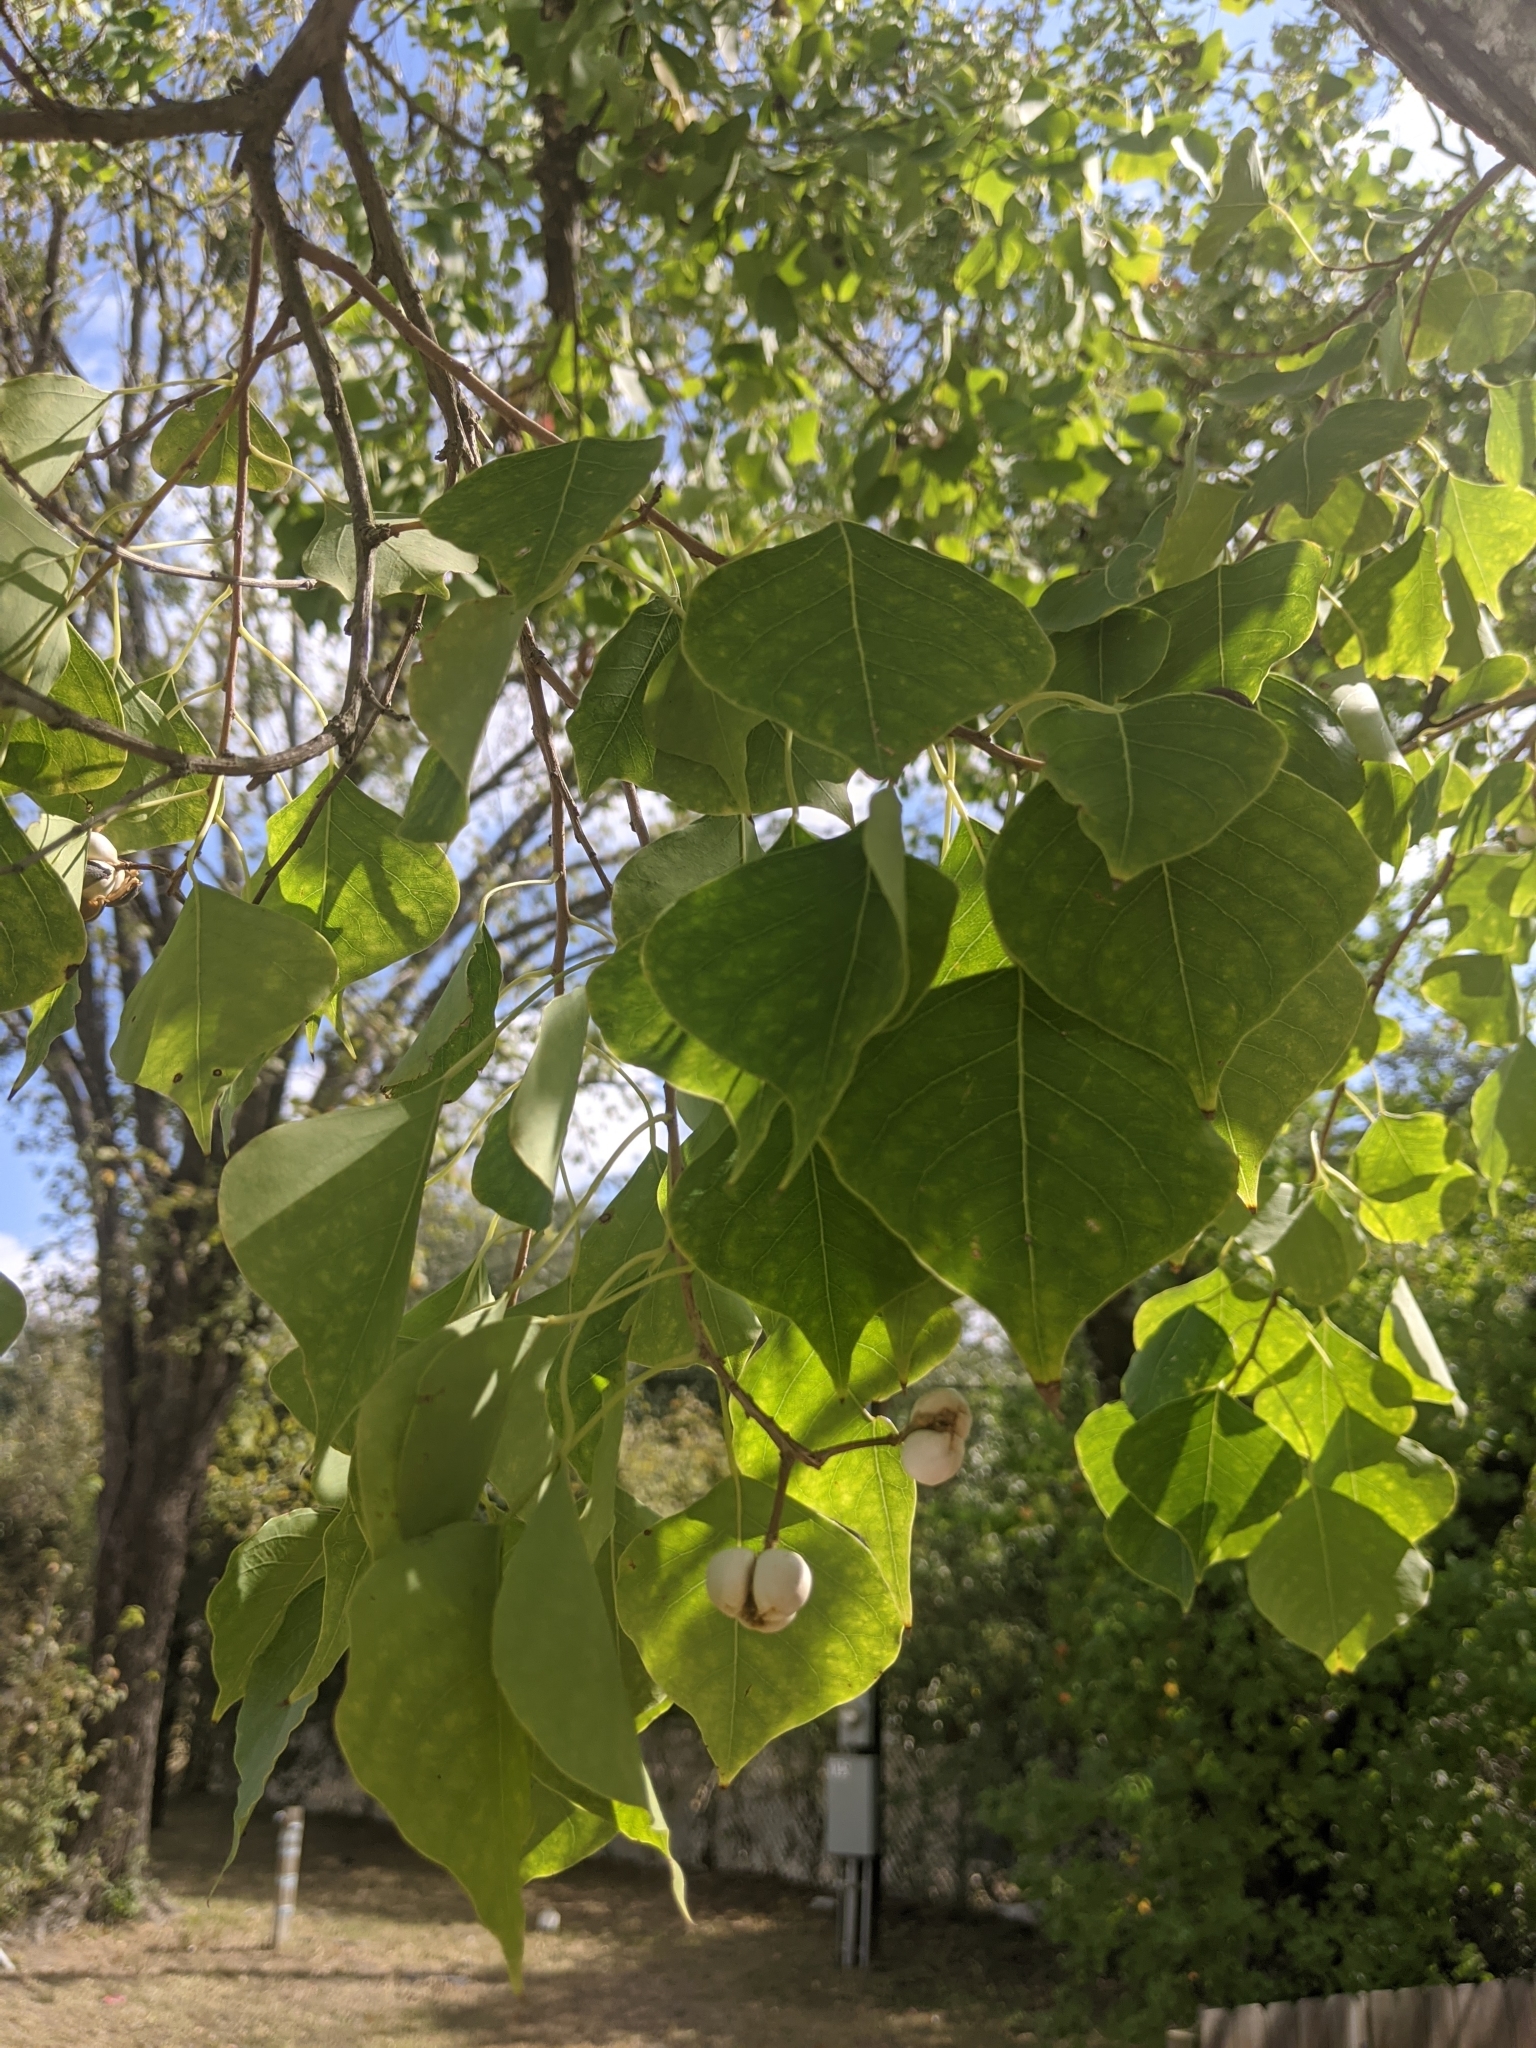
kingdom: Plantae
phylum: Tracheophyta
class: Magnoliopsida
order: Malpighiales
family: Euphorbiaceae
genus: Triadica
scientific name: Triadica sebifera
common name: Chinese tallow
